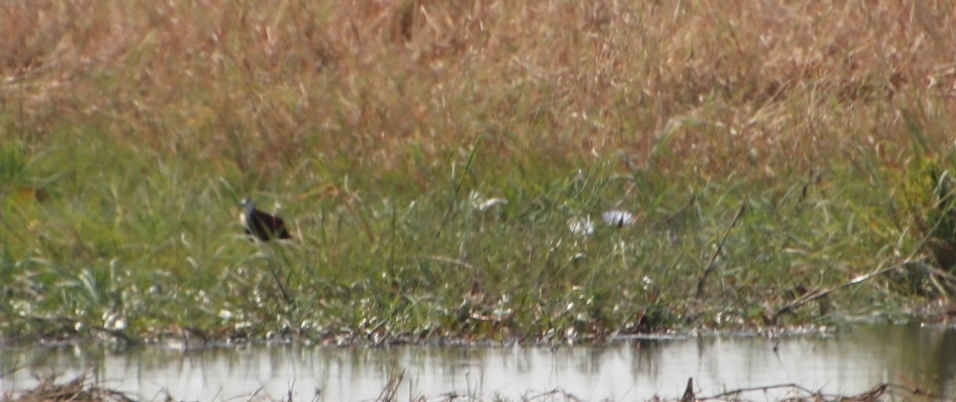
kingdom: Animalia
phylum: Chordata
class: Aves
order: Charadriiformes
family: Jacanidae
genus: Actophilornis
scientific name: Actophilornis africanus
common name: African jacana
